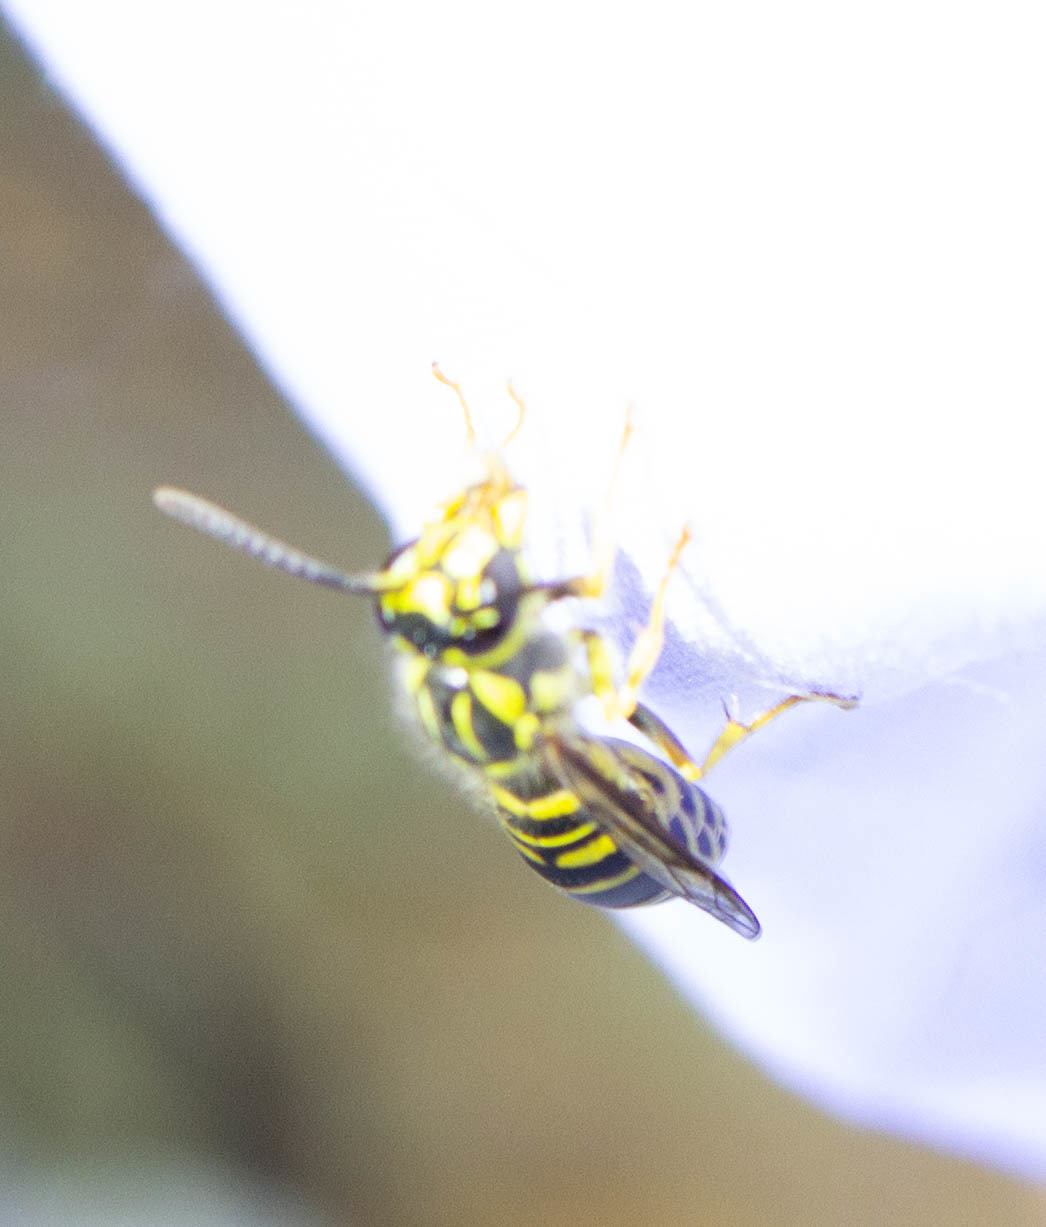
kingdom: Animalia
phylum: Arthropoda
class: Insecta
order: Hymenoptera
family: Vespidae
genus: Vespula
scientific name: Vespula squamosa
